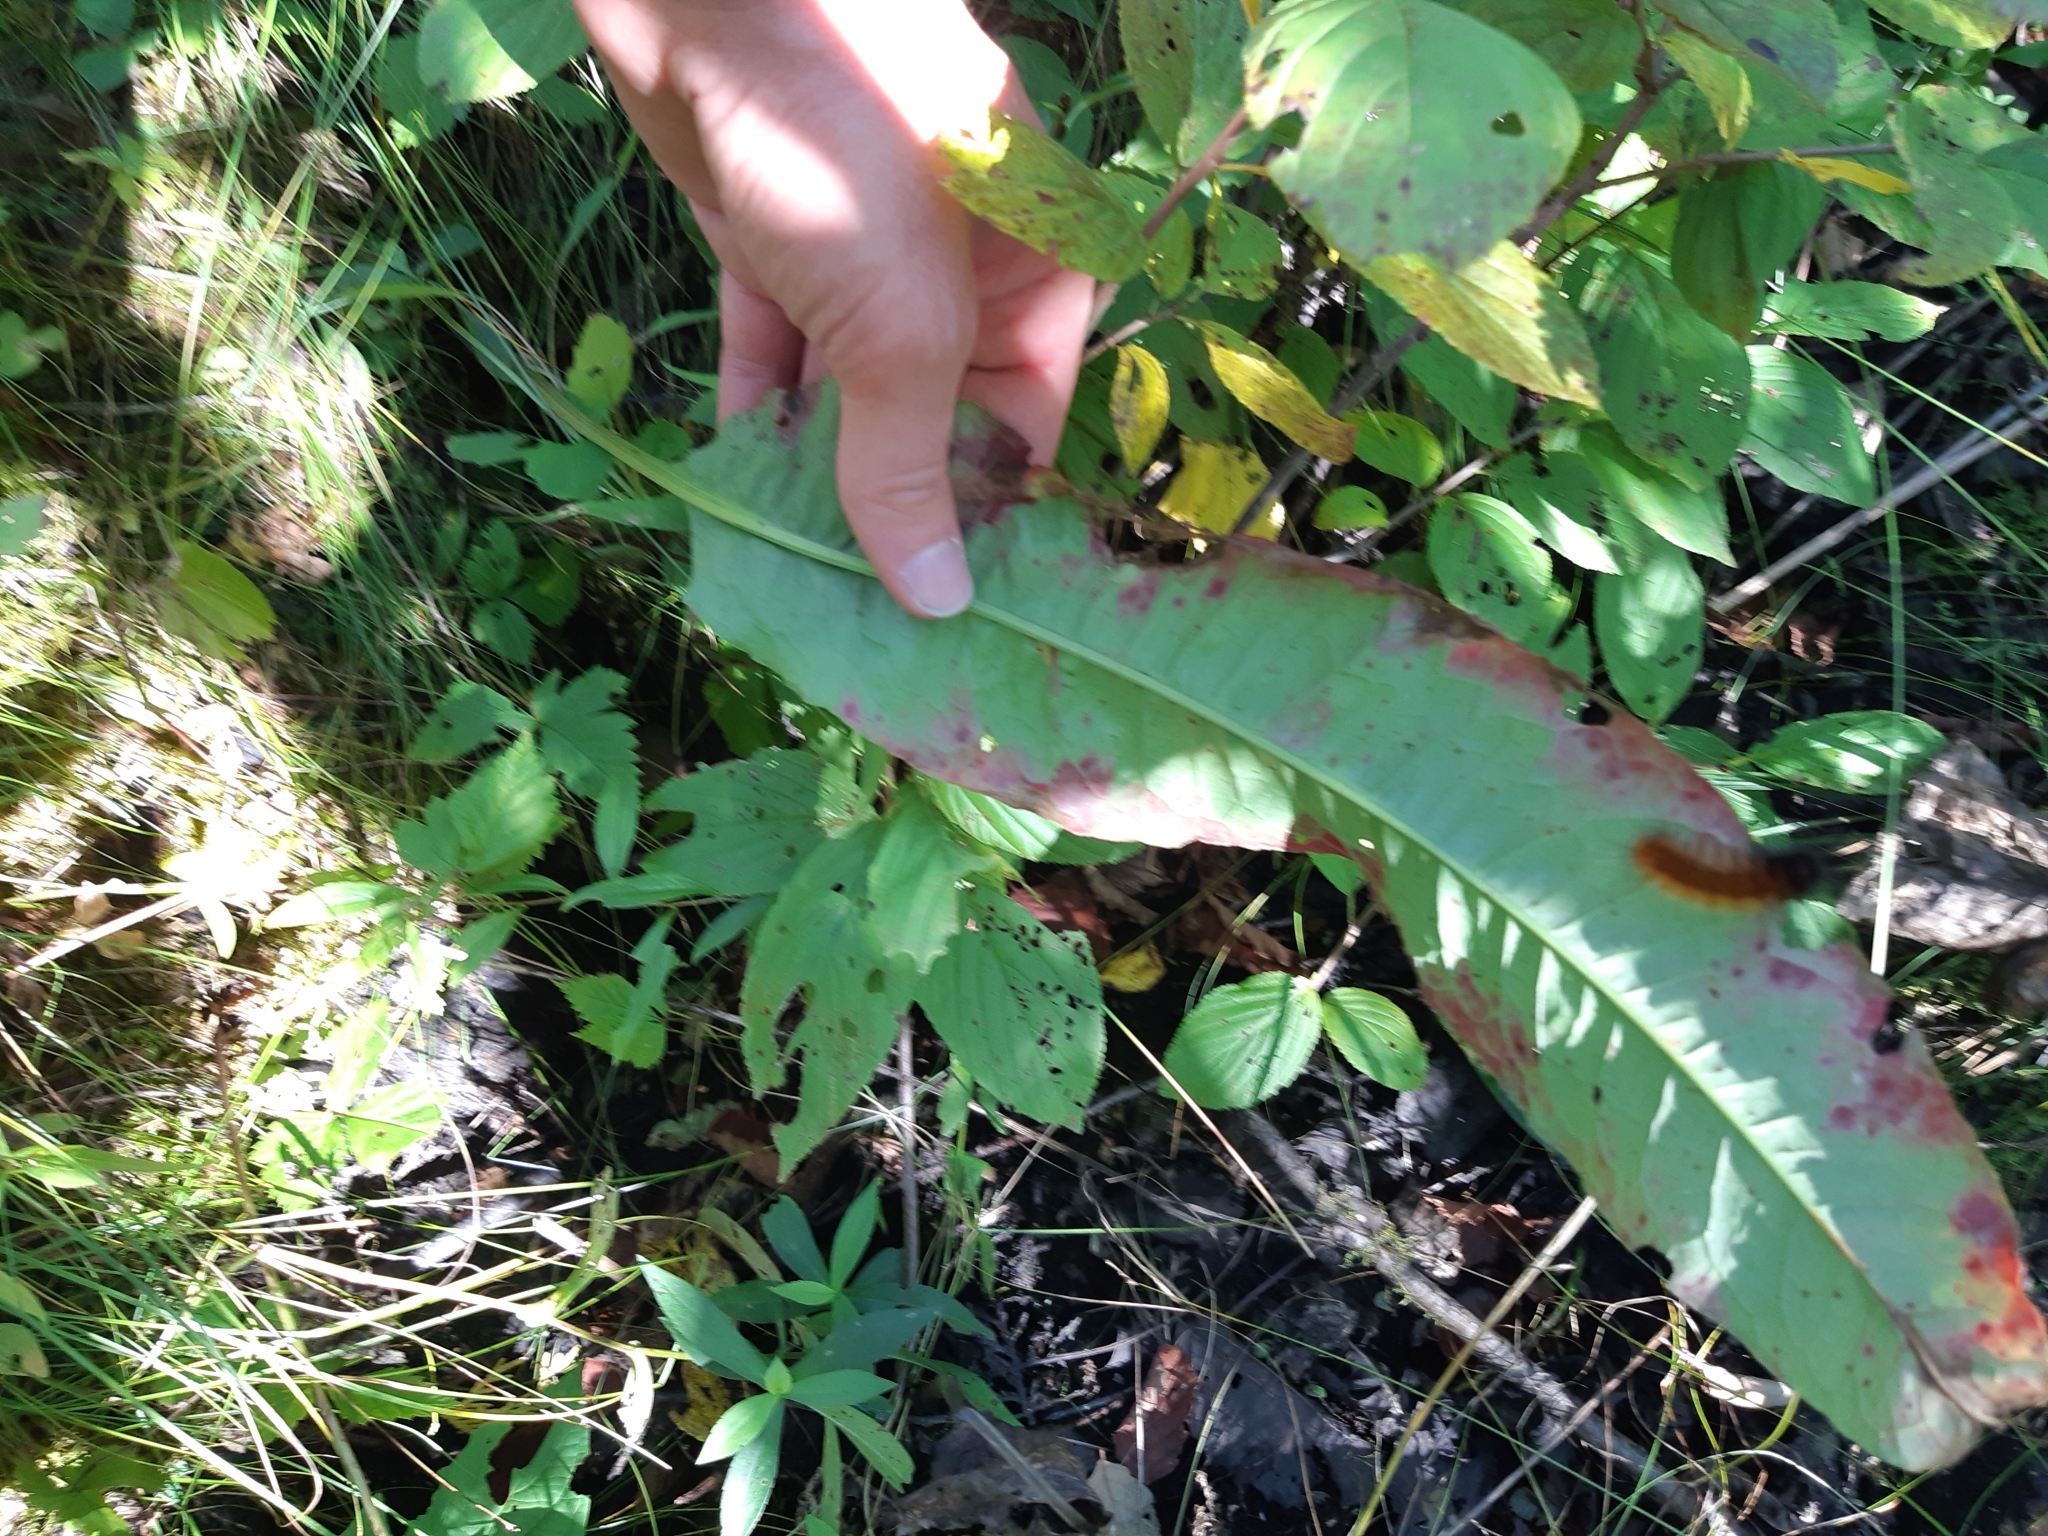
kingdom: Plantae
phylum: Tracheophyta
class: Magnoliopsida
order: Caryophyllales
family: Polygonaceae
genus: Rumex
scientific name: Rumex britannica
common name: British dock
